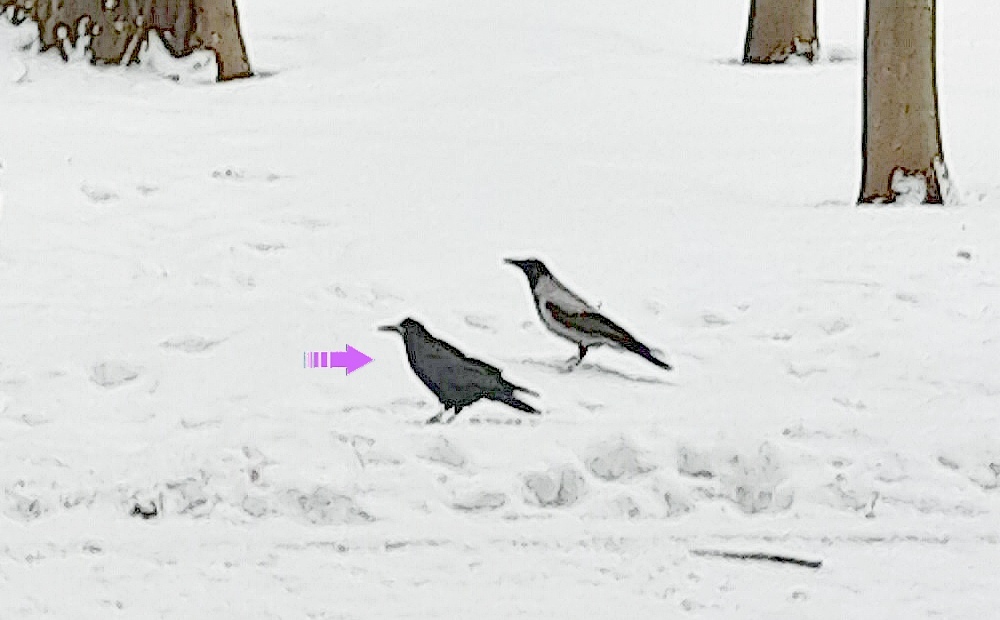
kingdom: Animalia
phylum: Chordata
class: Aves
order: Passeriformes
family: Corvidae
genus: Corvus
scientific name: Corvus frugilegus
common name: Rook
